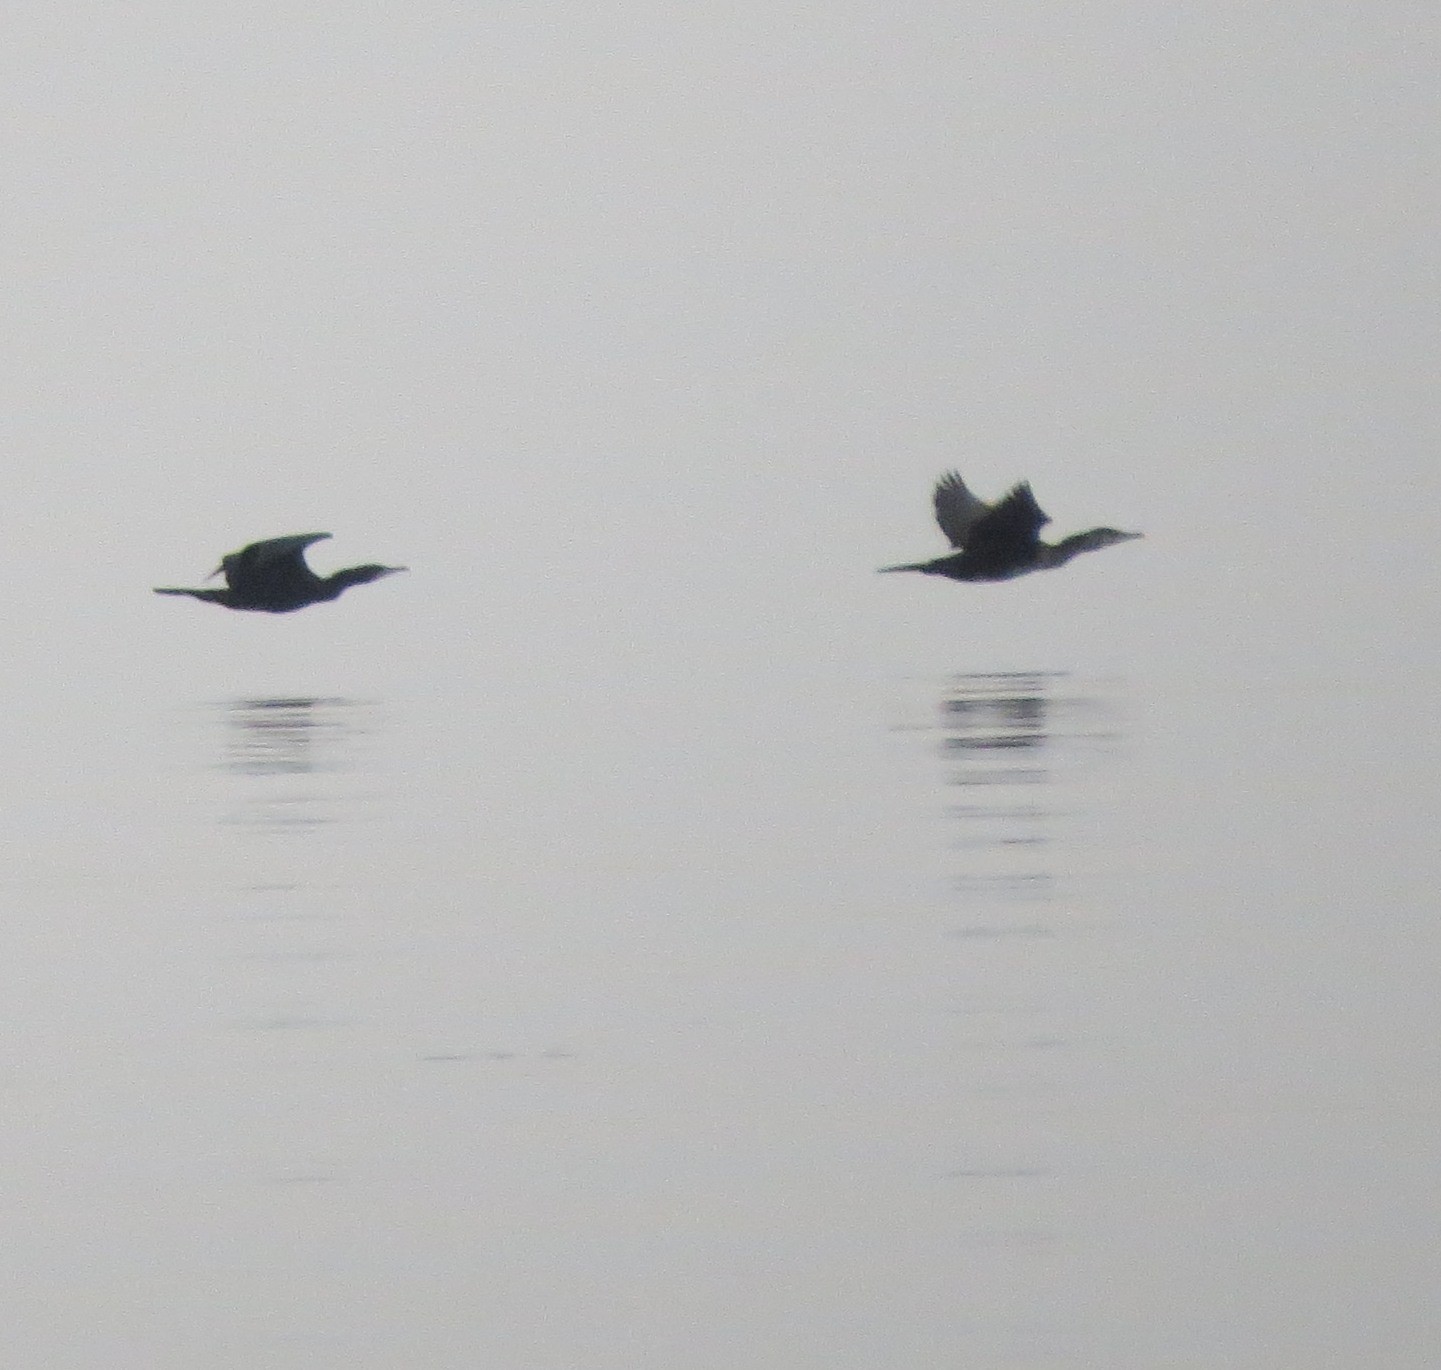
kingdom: Animalia
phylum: Chordata
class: Aves
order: Suliformes
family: Phalacrocoracidae
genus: Phalacrocorax
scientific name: Phalacrocorax carbo
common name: Great cormorant
